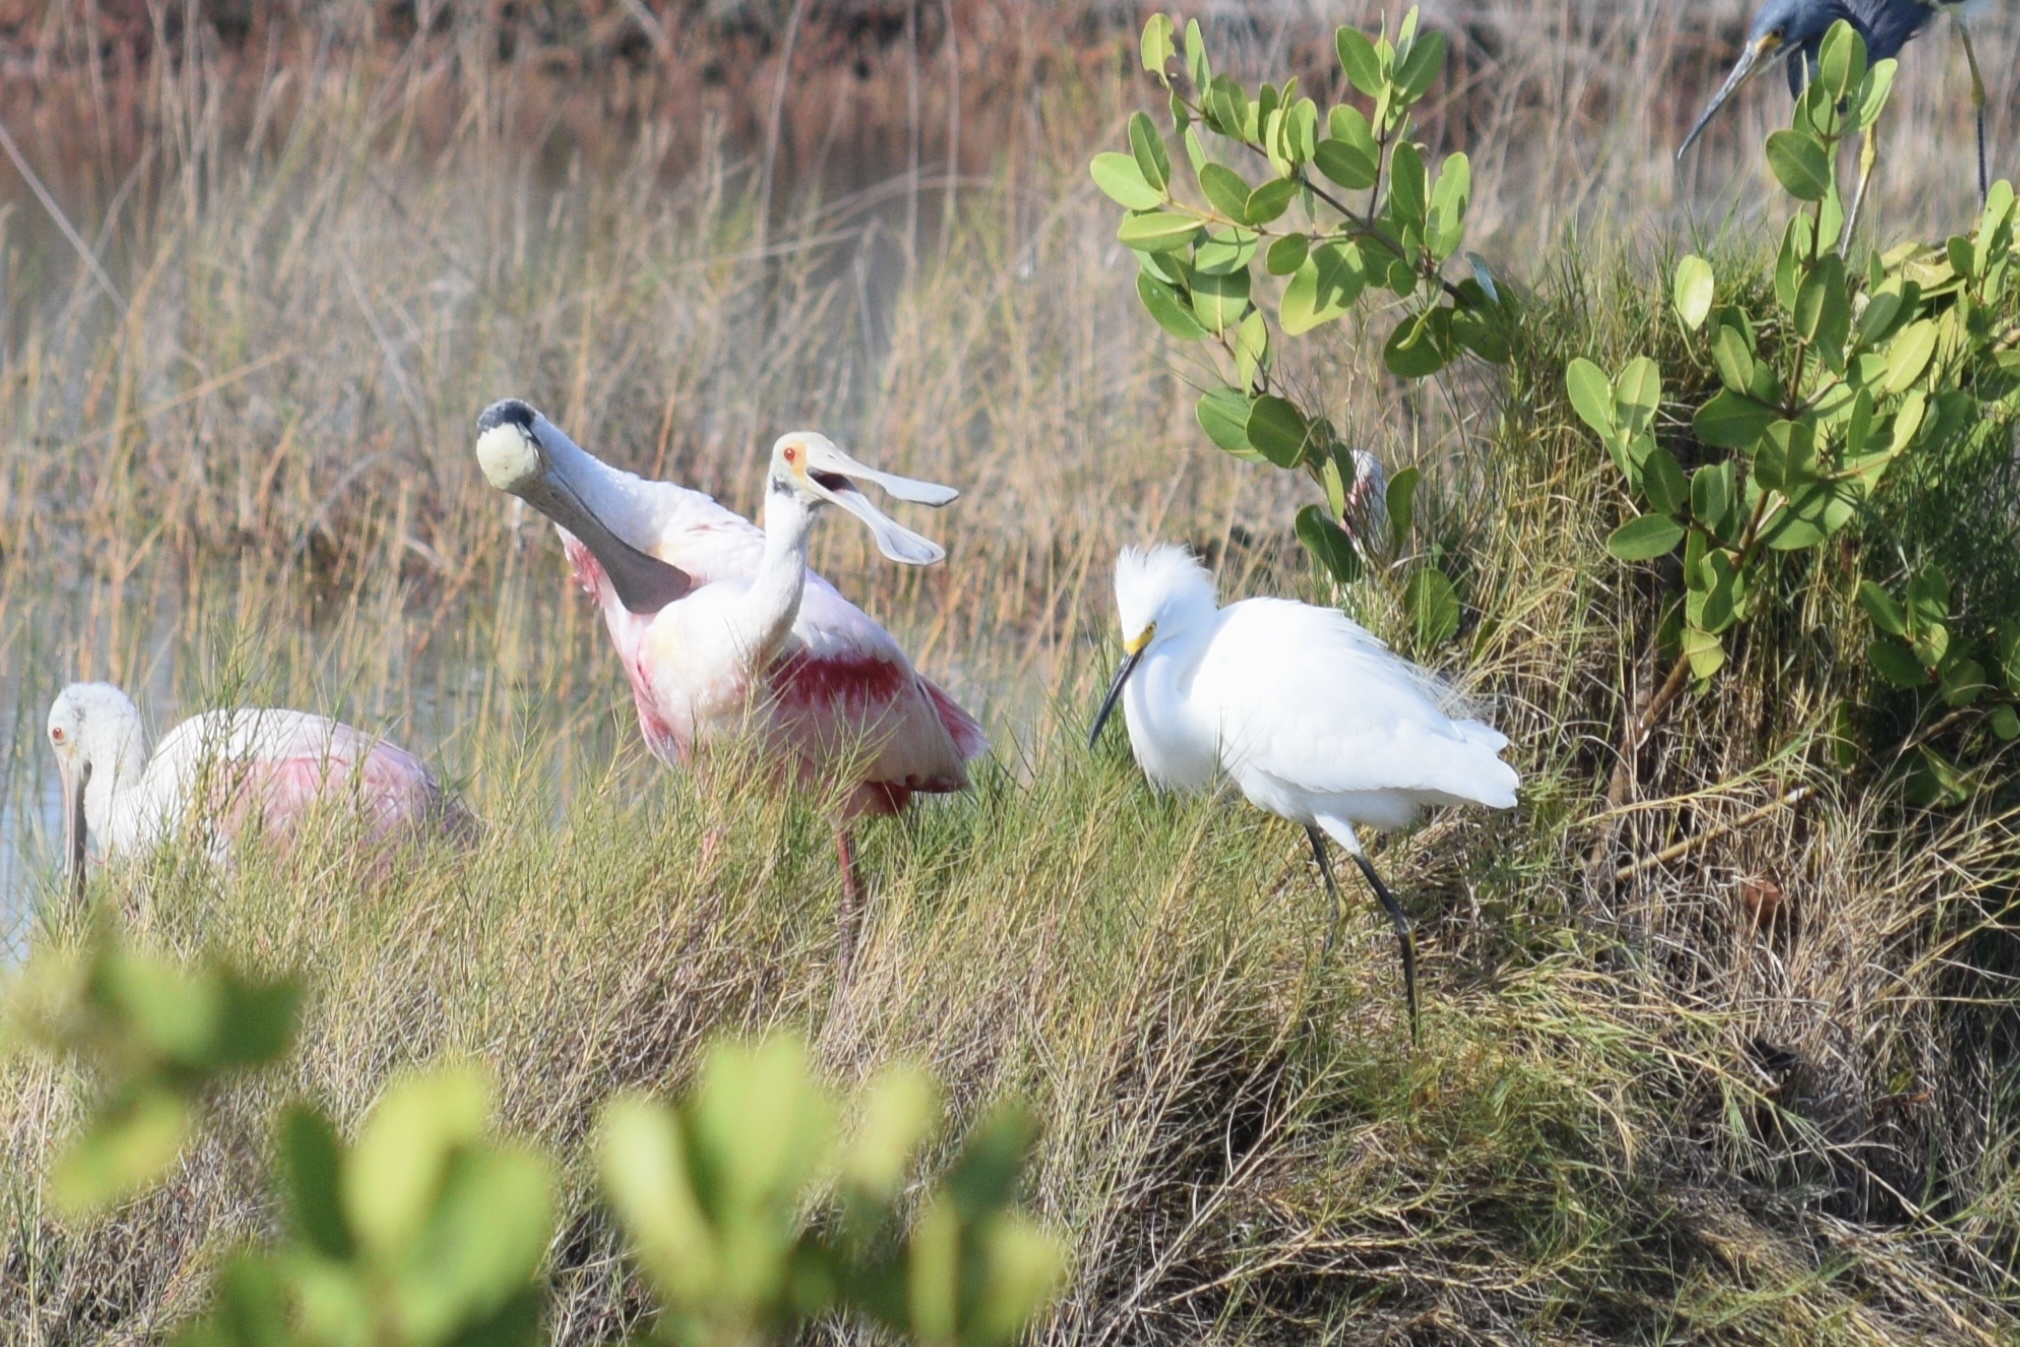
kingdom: Animalia
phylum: Chordata
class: Aves
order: Pelecaniformes
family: Threskiornithidae
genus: Platalea
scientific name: Platalea ajaja
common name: Roseate spoonbill
